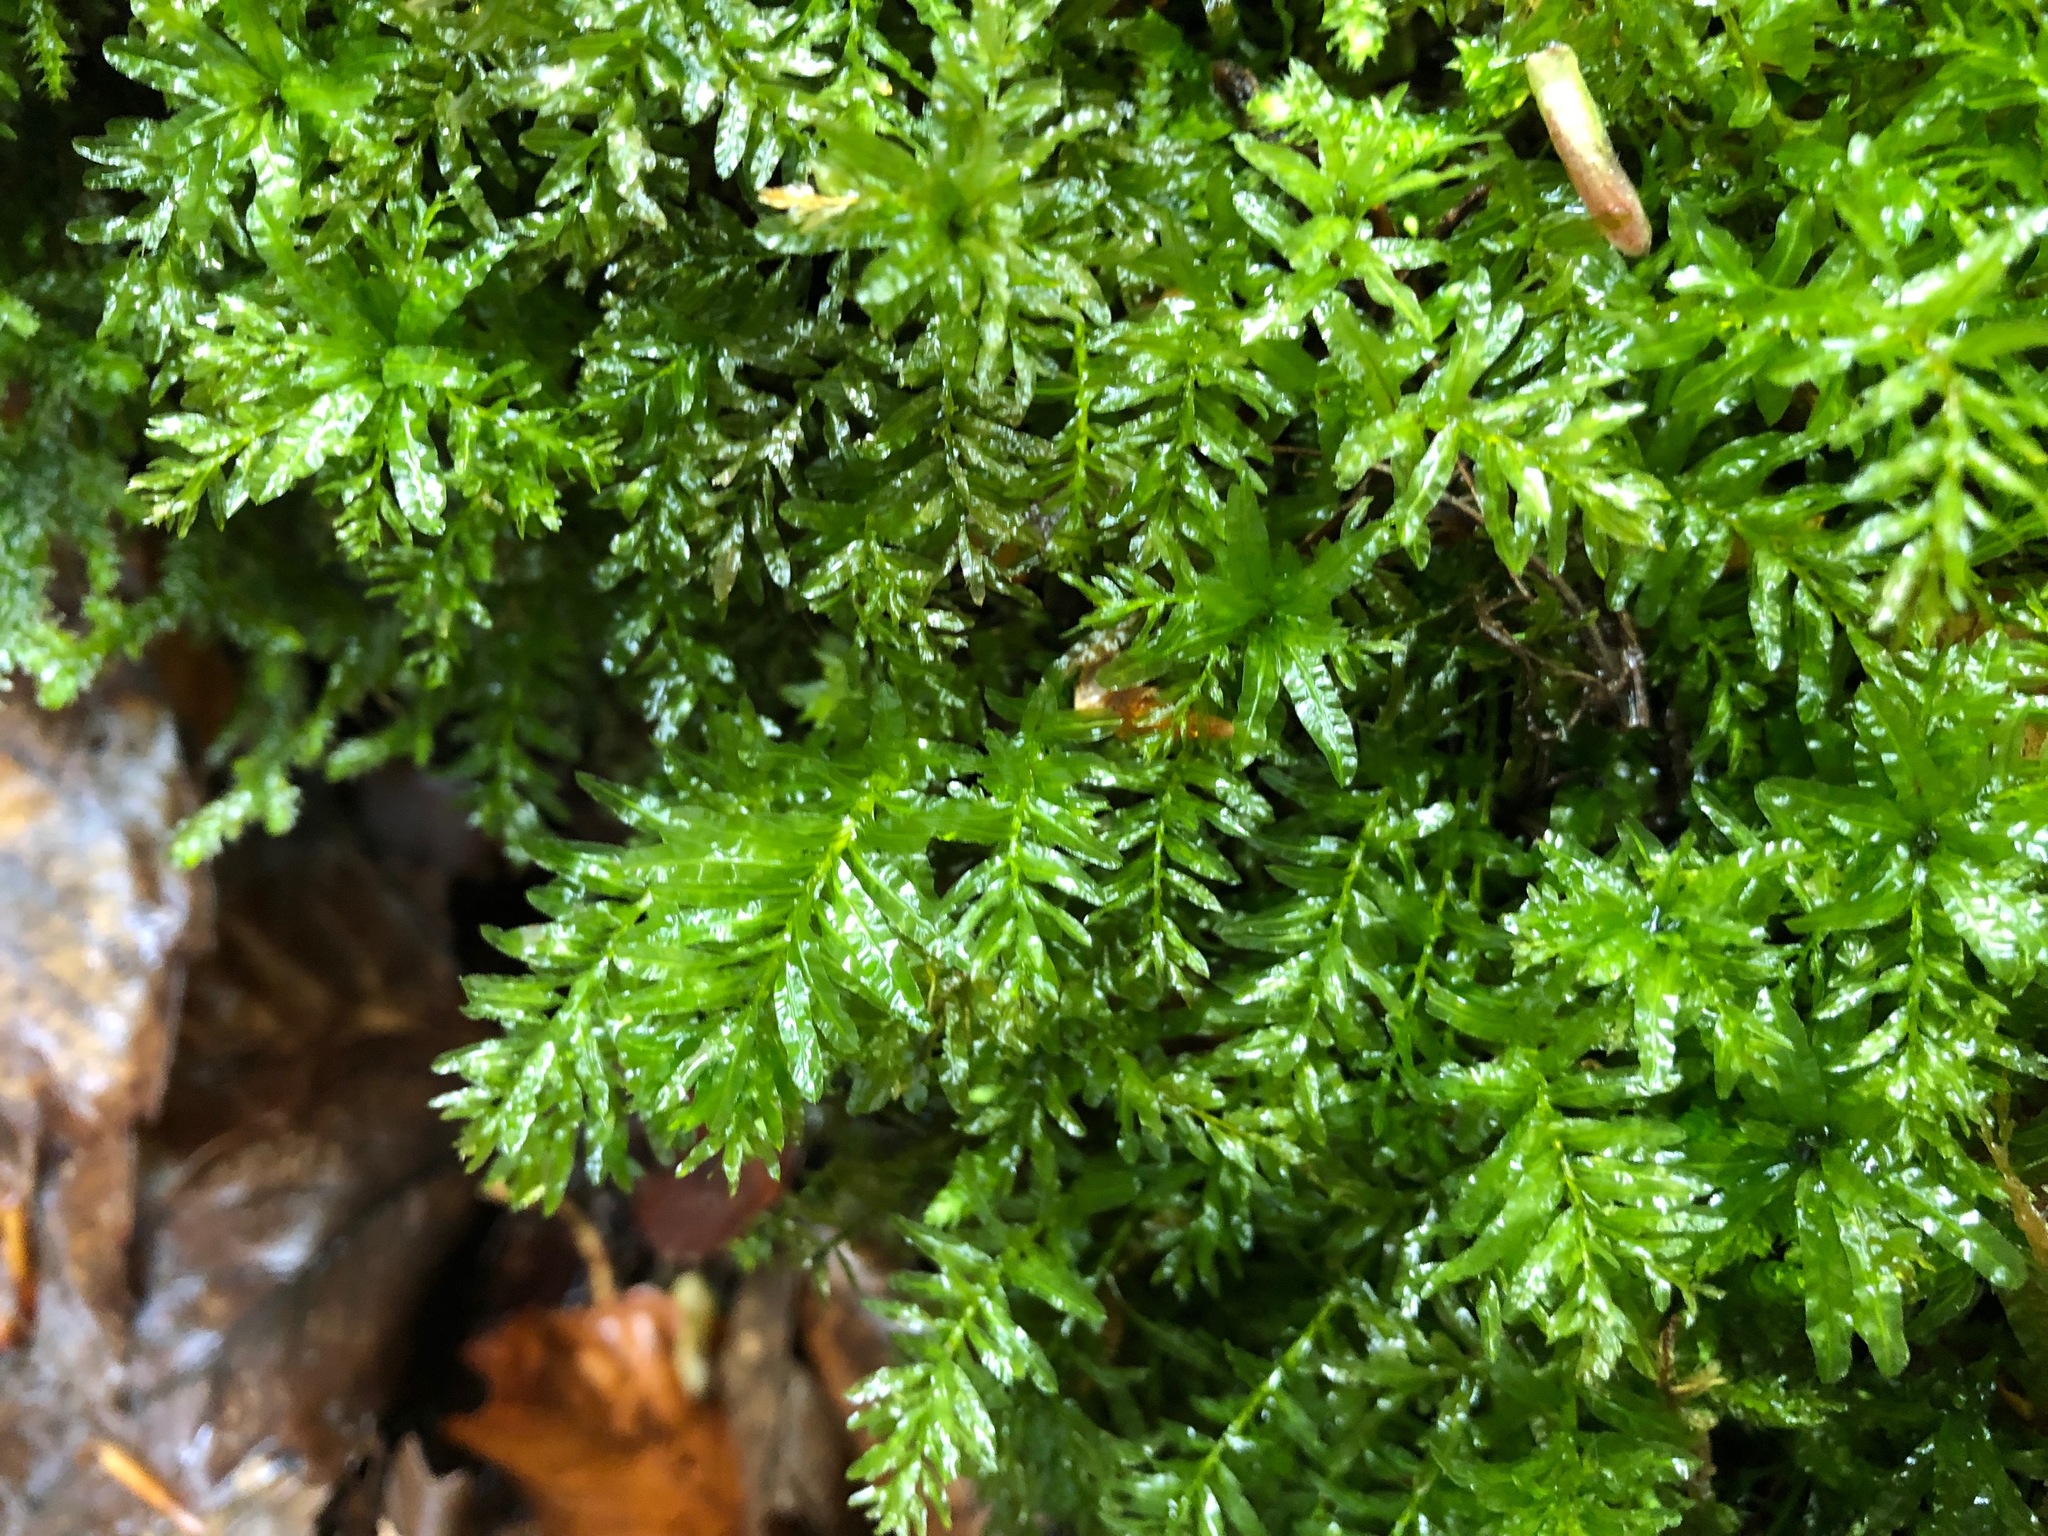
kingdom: Plantae
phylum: Bryophyta
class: Bryopsida
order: Bryales
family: Mniaceae
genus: Plagiomnium
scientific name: Plagiomnium undulatum
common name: Hart's-tongue thyme-moss
